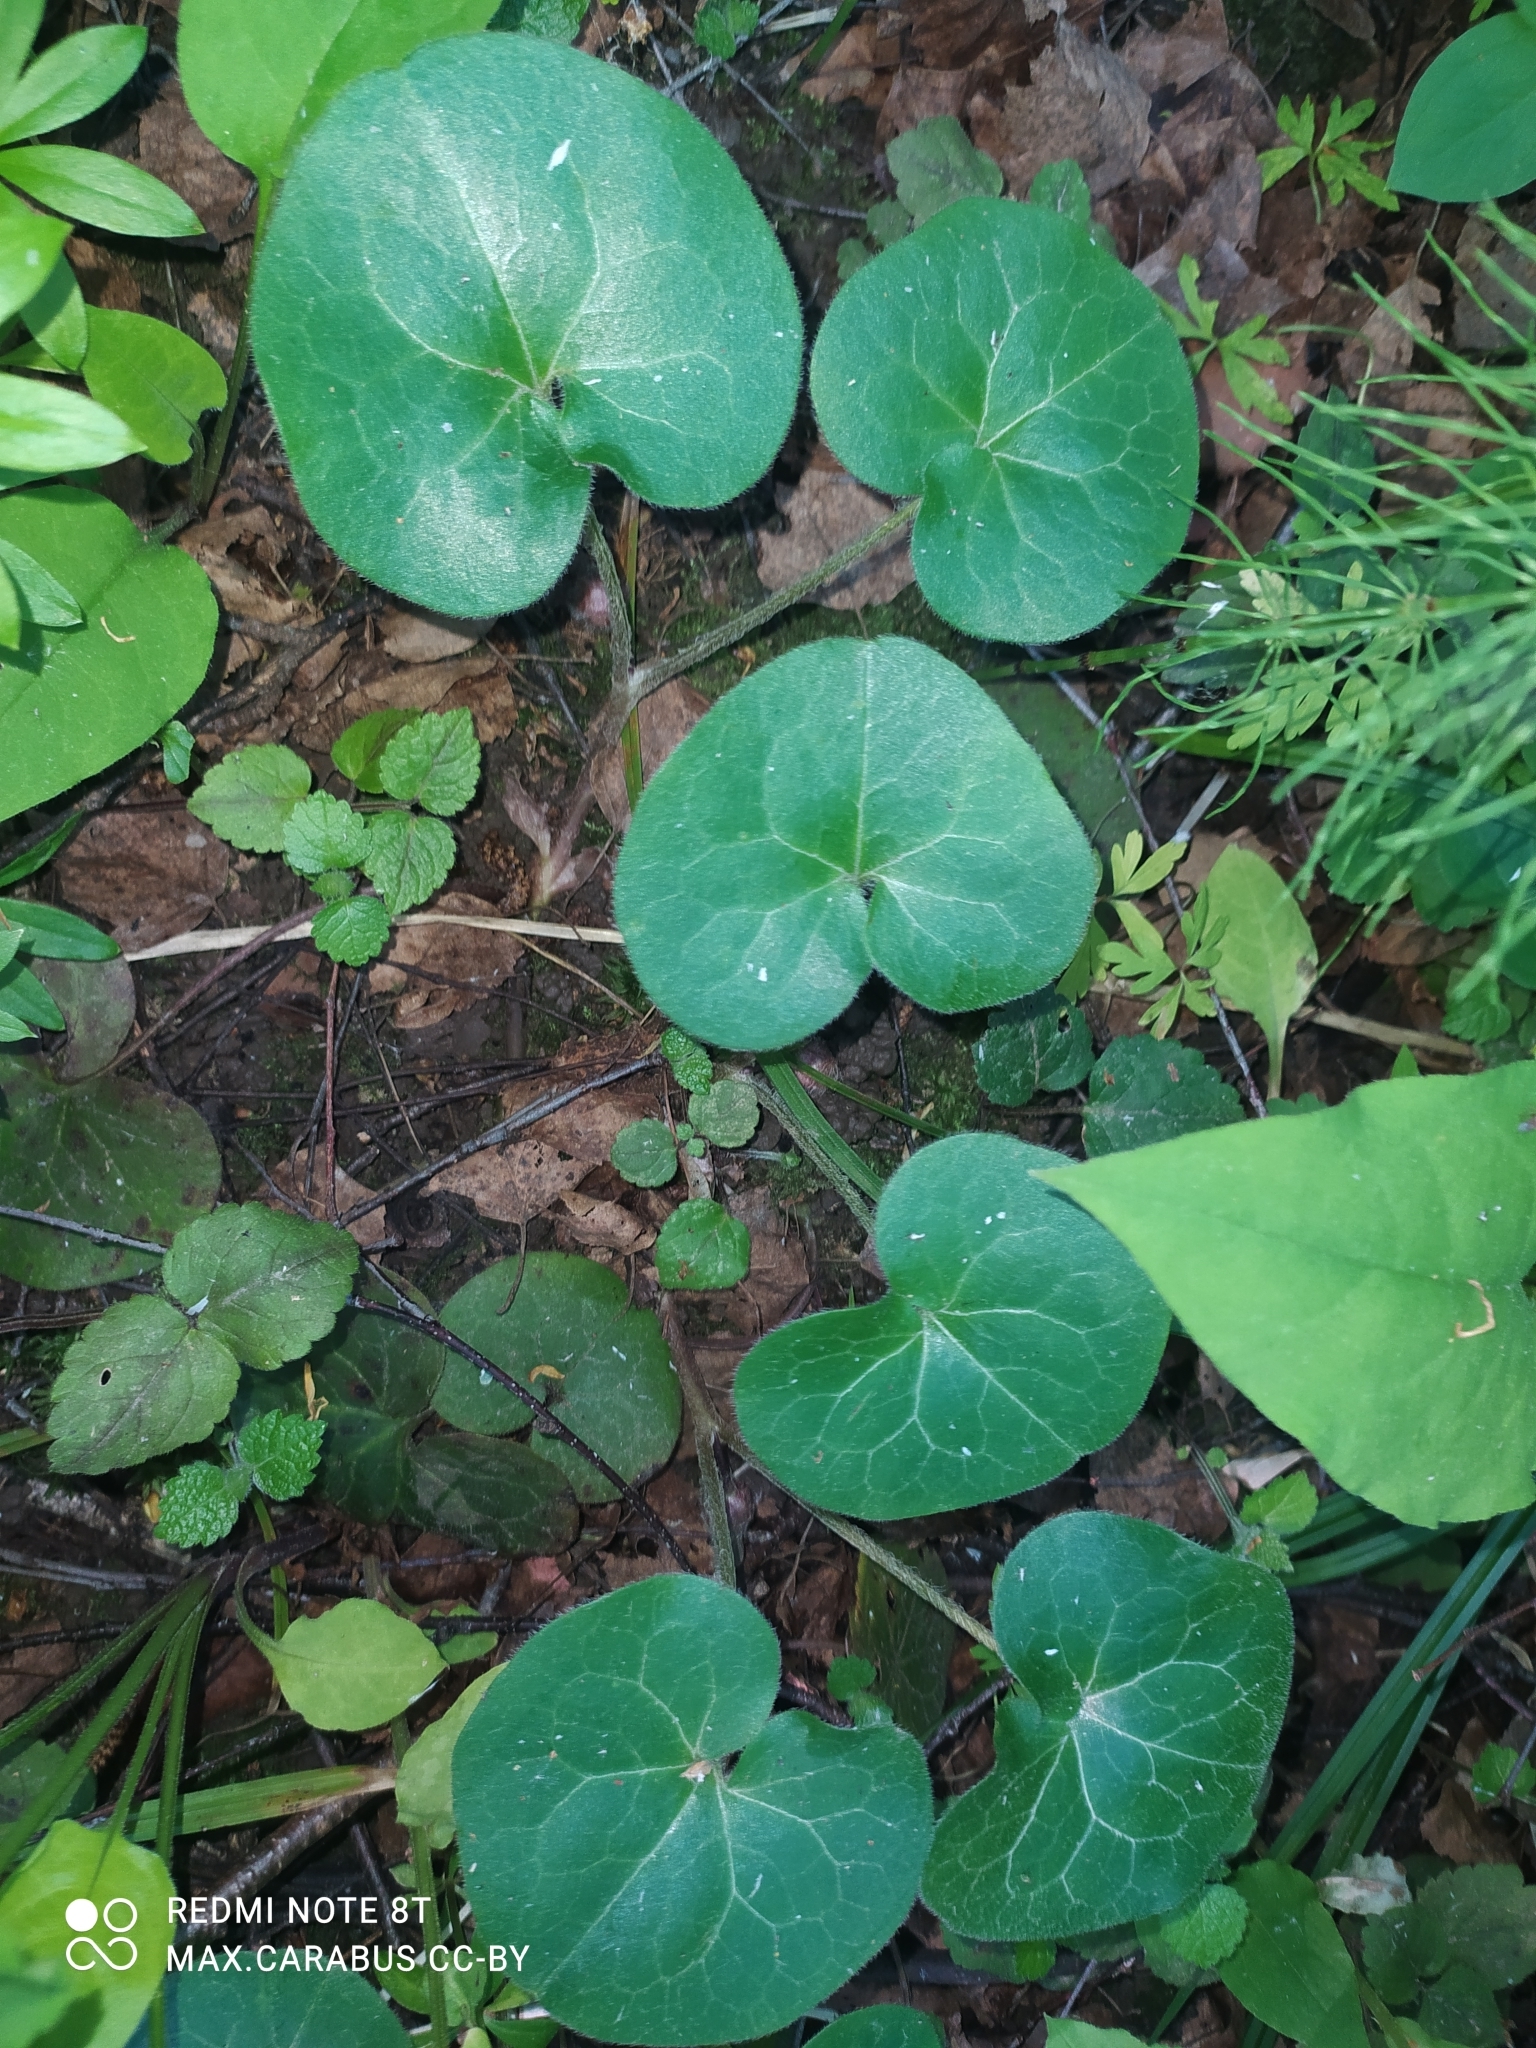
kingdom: Plantae
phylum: Tracheophyta
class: Magnoliopsida
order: Piperales
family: Aristolochiaceae
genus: Asarum
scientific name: Asarum europaeum
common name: Asarabacca
